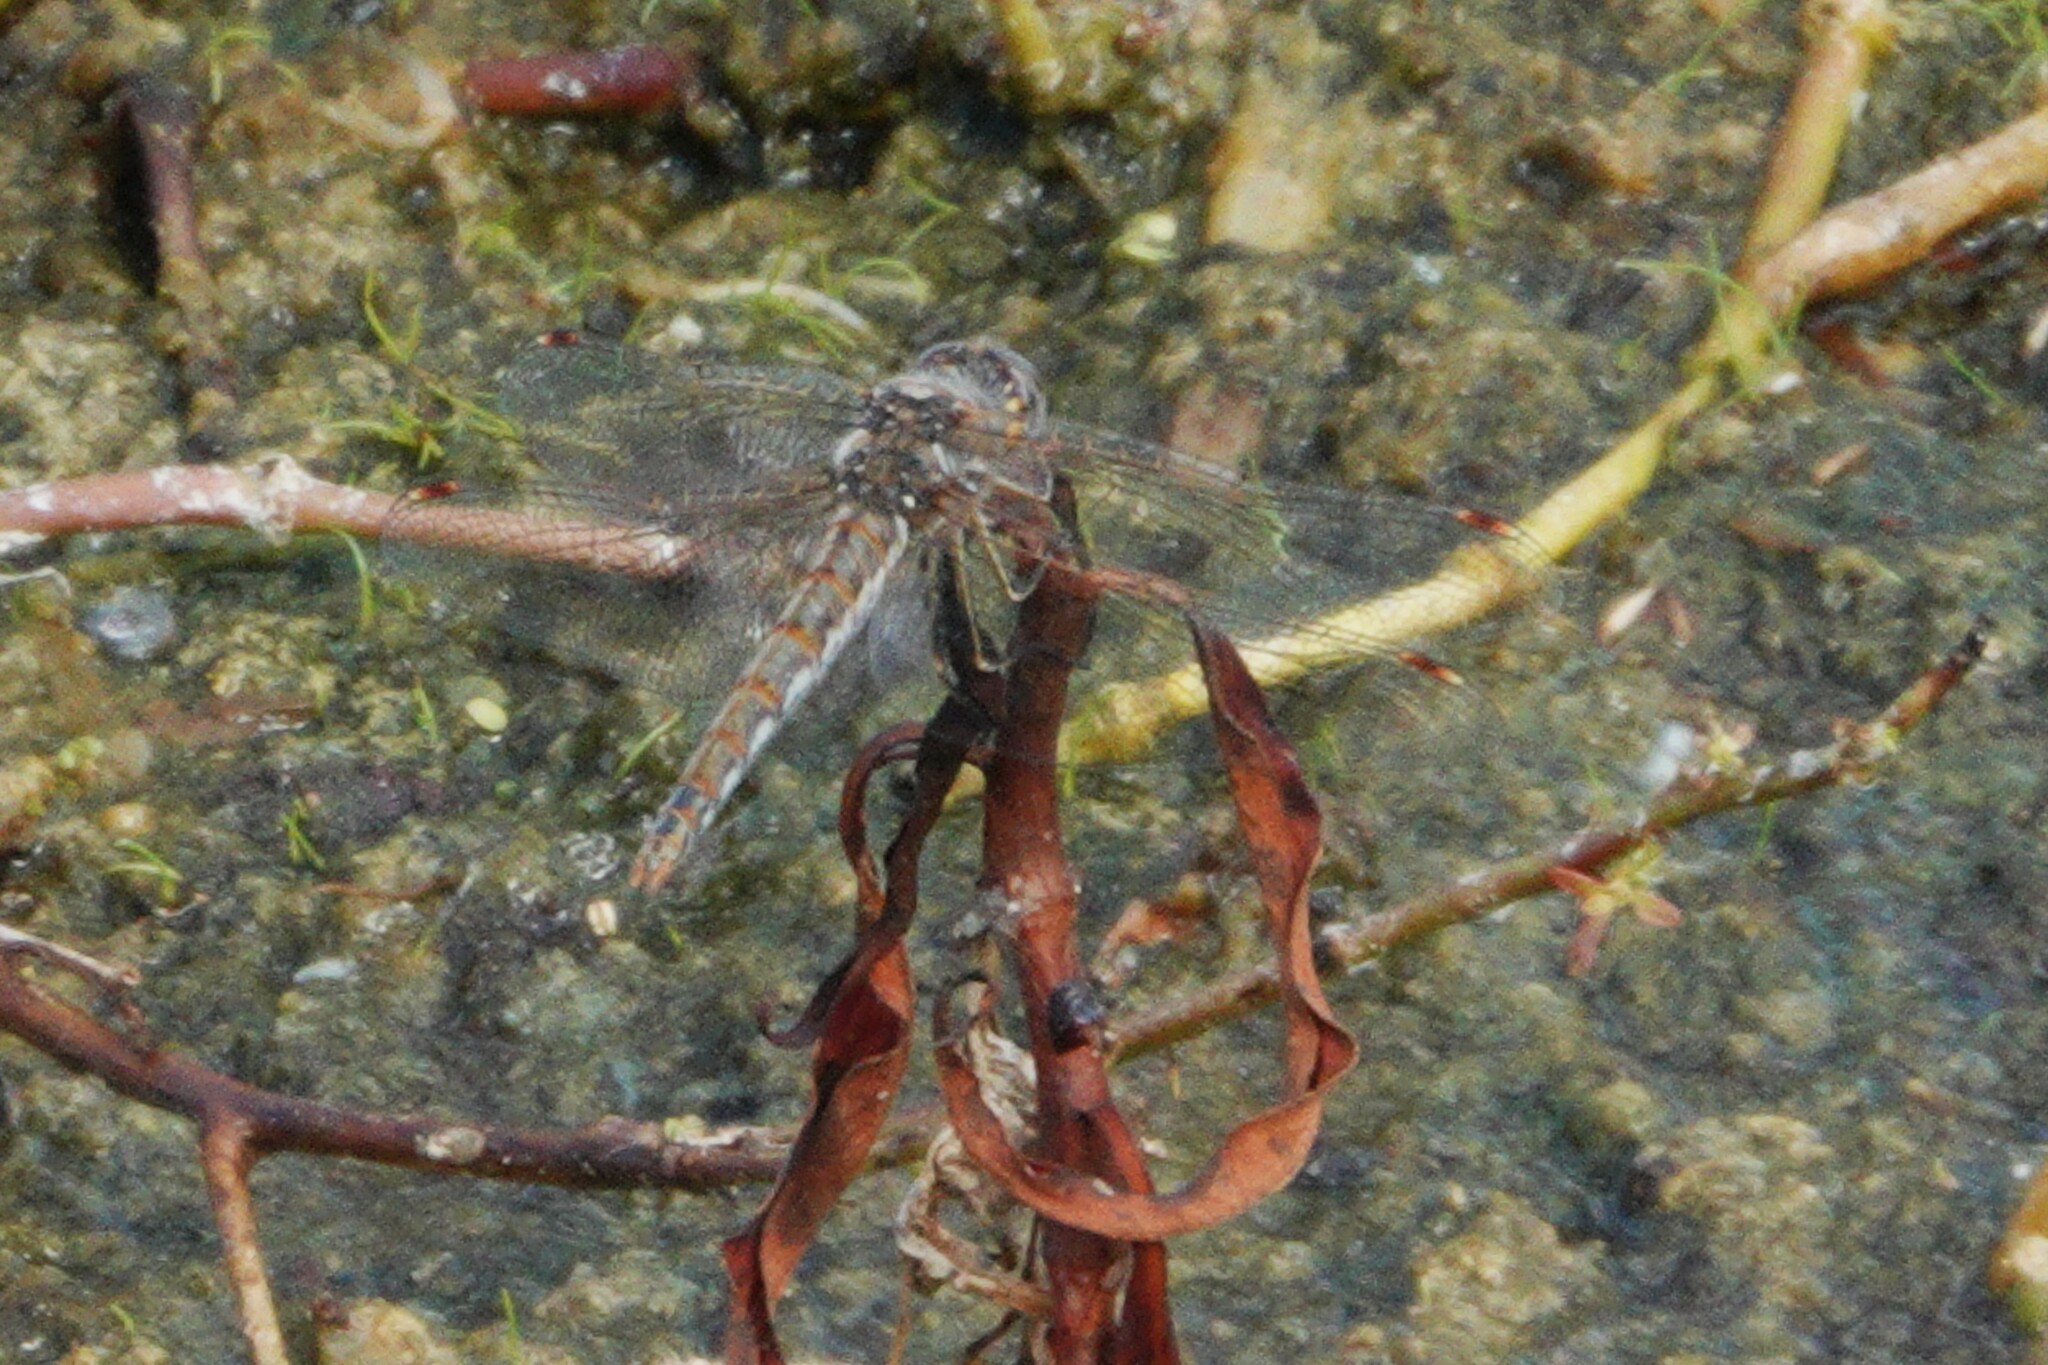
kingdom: Animalia
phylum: Arthropoda
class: Insecta
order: Odonata
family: Libellulidae
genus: Sympetrum
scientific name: Sympetrum corruptum
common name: Variegated meadowhawk
